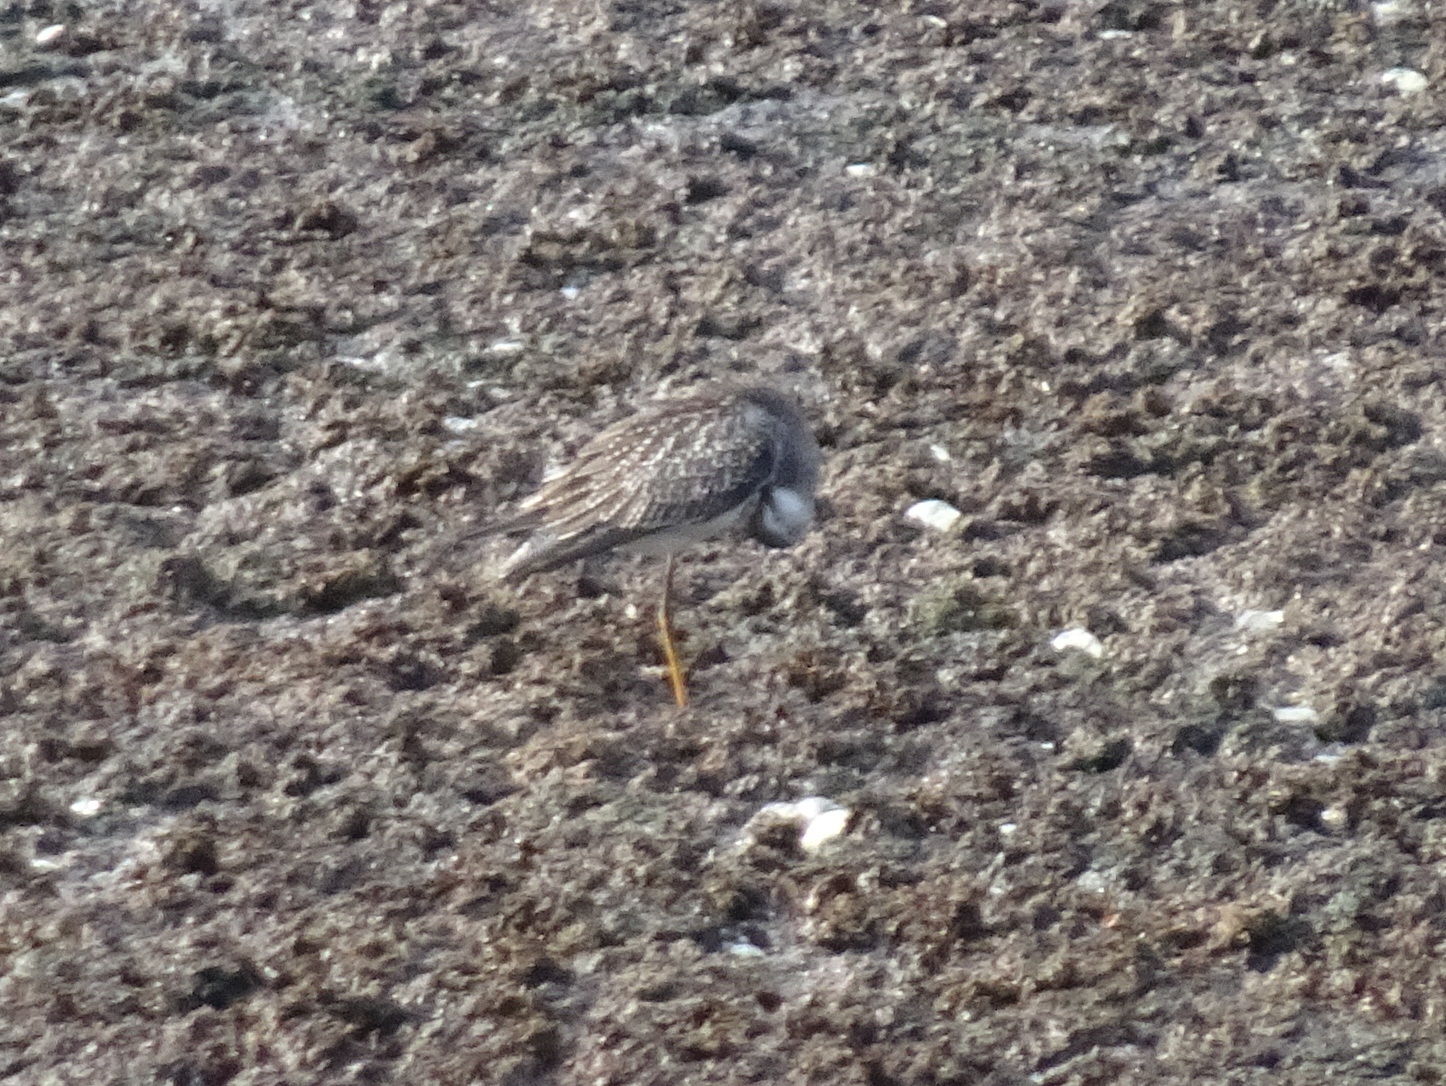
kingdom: Animalia
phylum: Chordata
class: Aves
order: Charadriiformes
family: Scolopacidae
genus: Tringa
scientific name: Tringa flavipes
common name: Lesser yellowlegs
